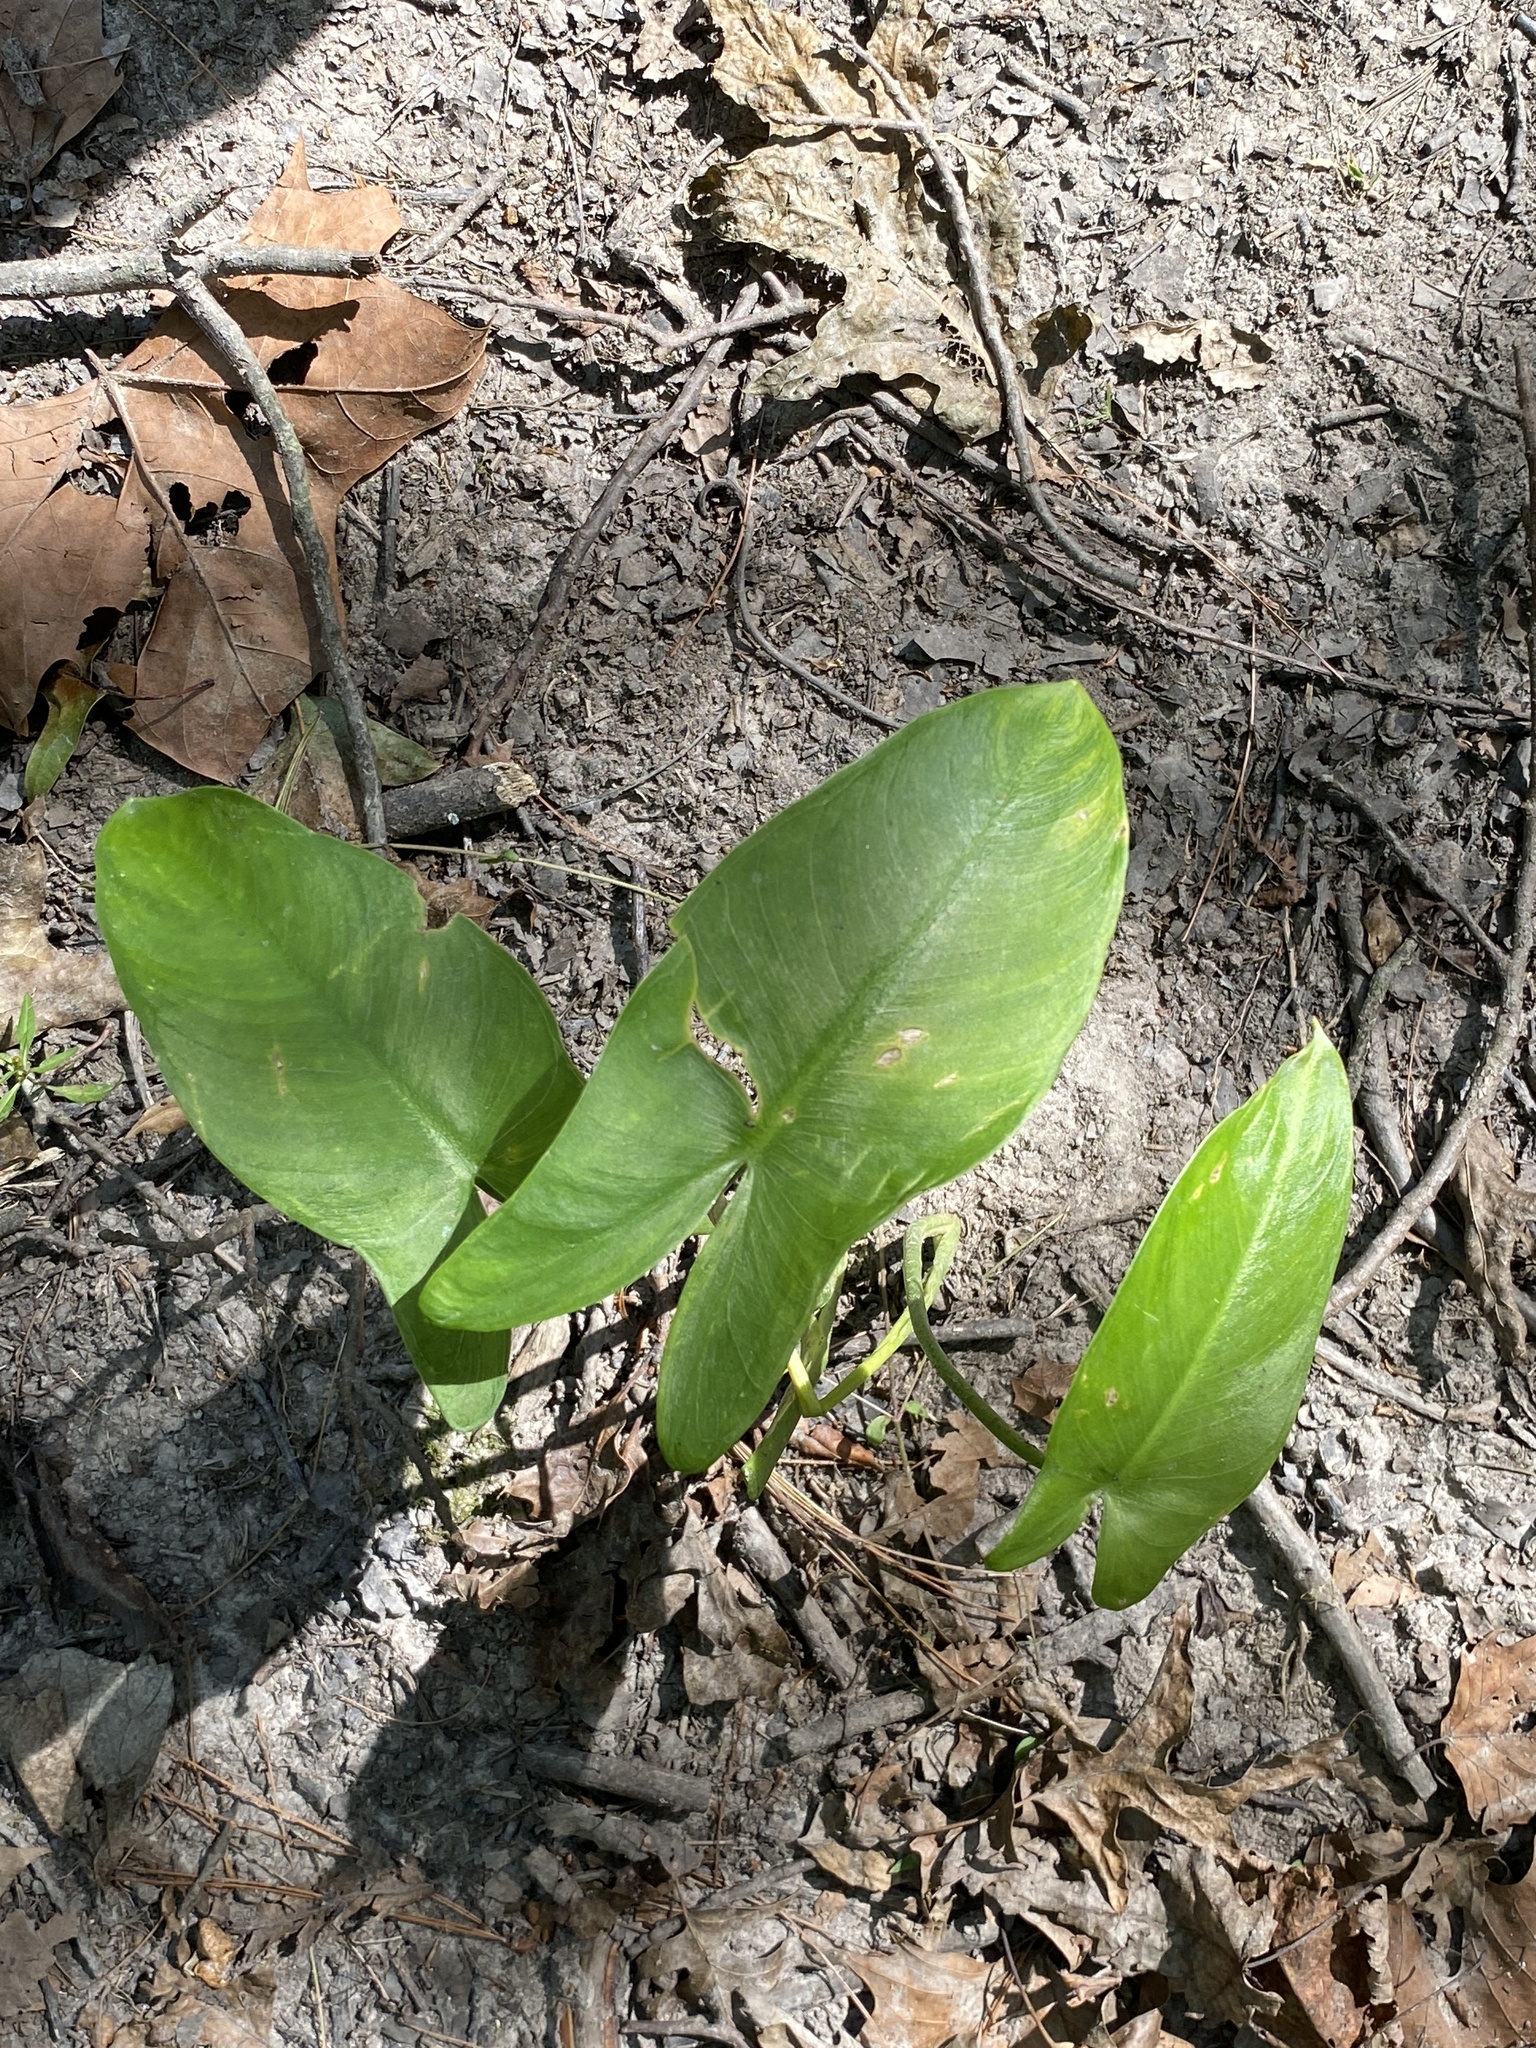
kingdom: Plantae
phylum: Tracheophyta
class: Liliopsida
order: Alismatales
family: Araceae
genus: Peltandra
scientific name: Peltandra virginica
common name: Arrow arum
